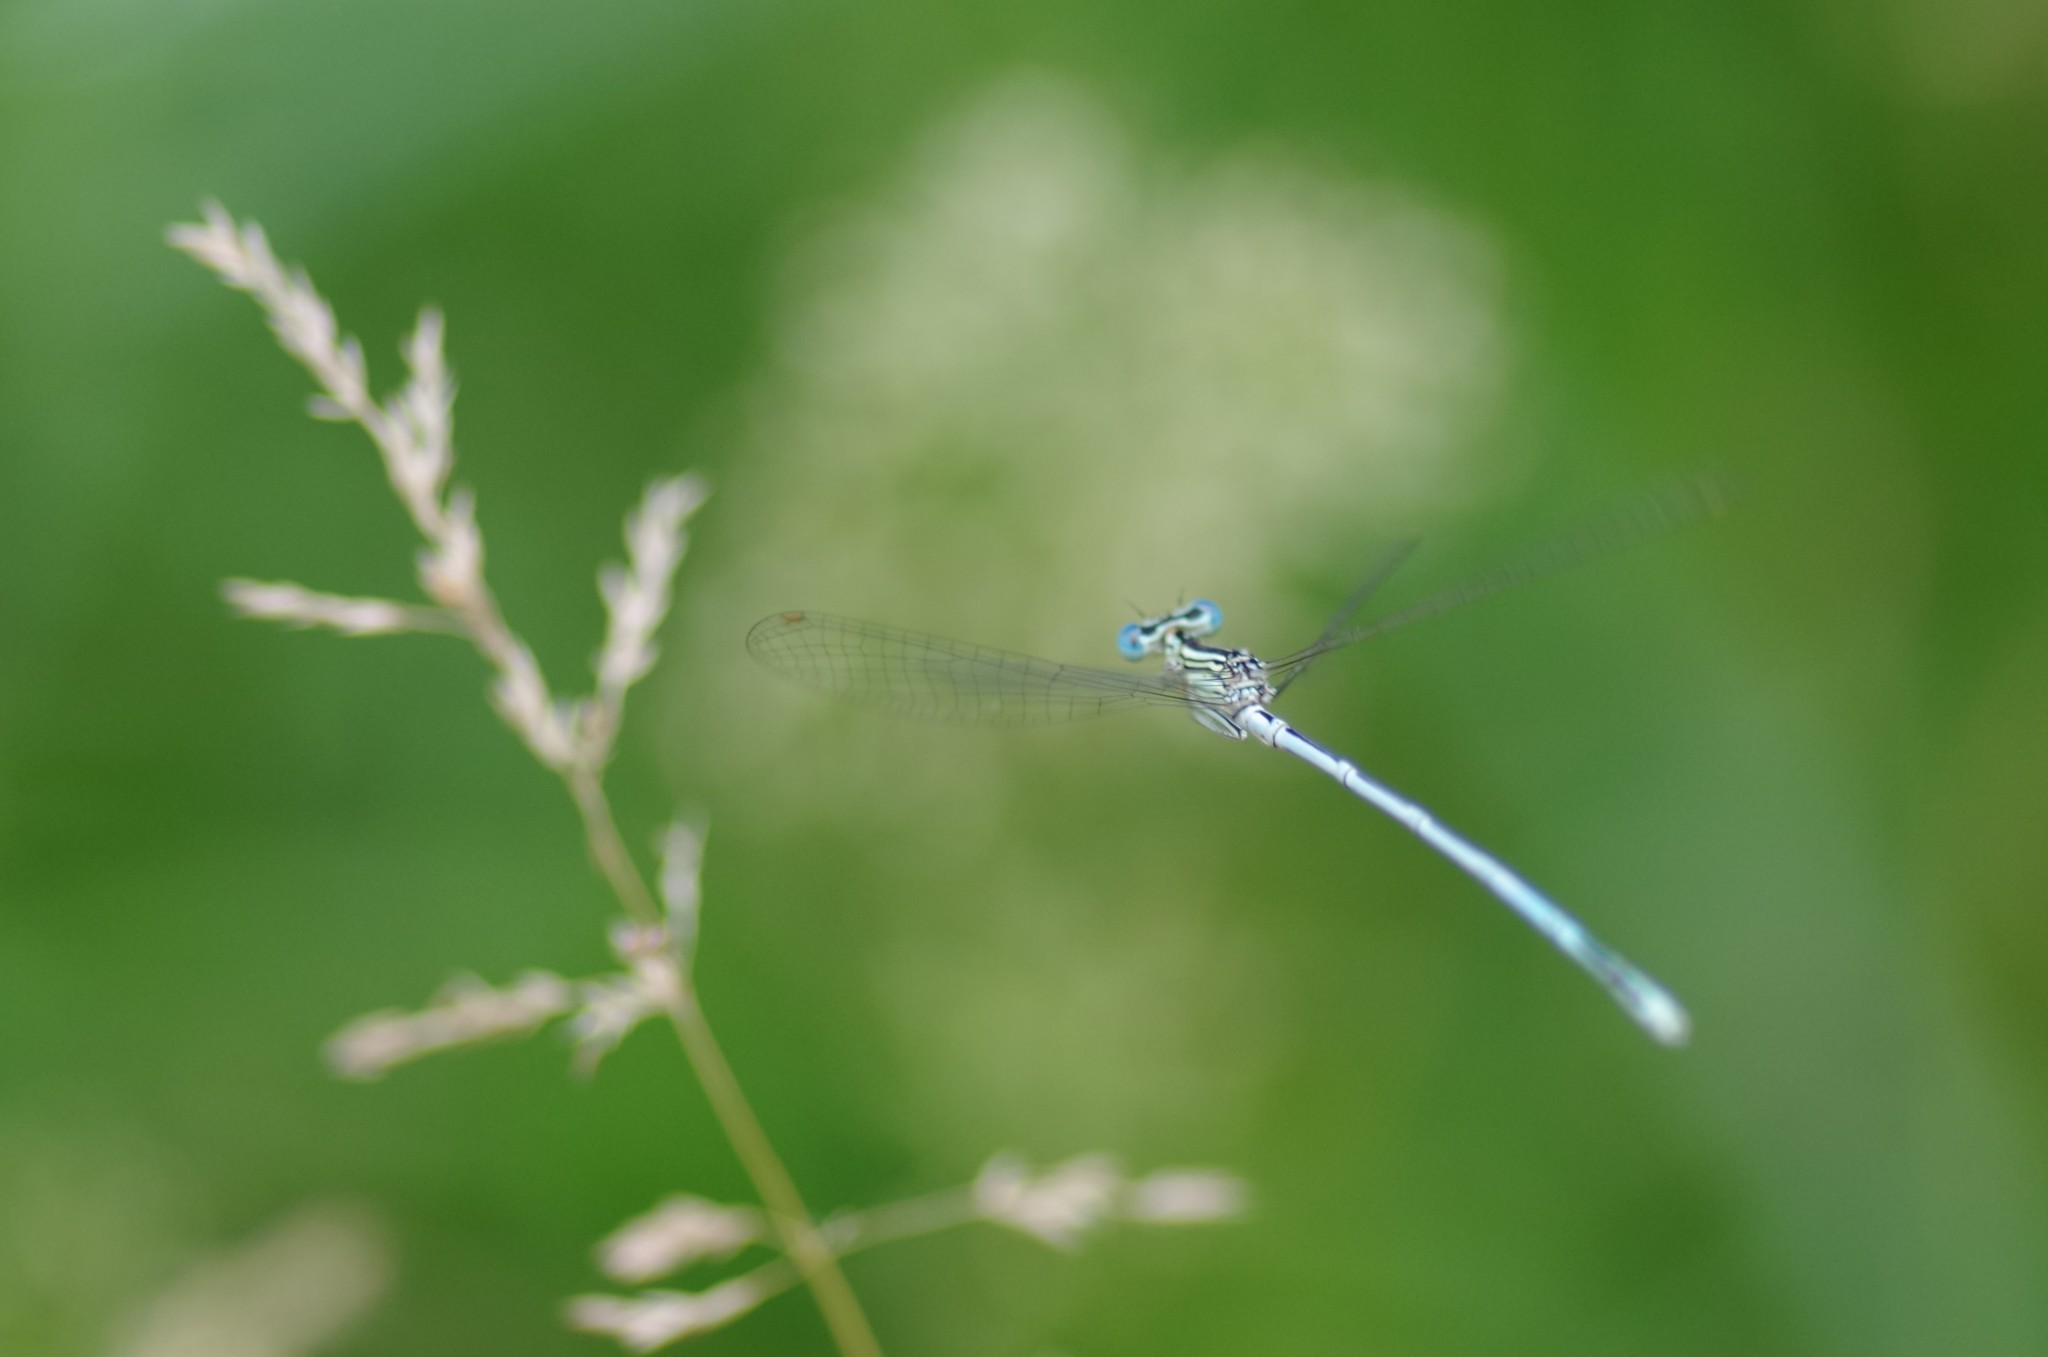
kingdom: Animalia
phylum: Arthropoda
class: Insecta
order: Odonata
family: Platycnemididae
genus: Platycnemis
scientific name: Platycnemis pennipes
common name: White-legged damselfly
